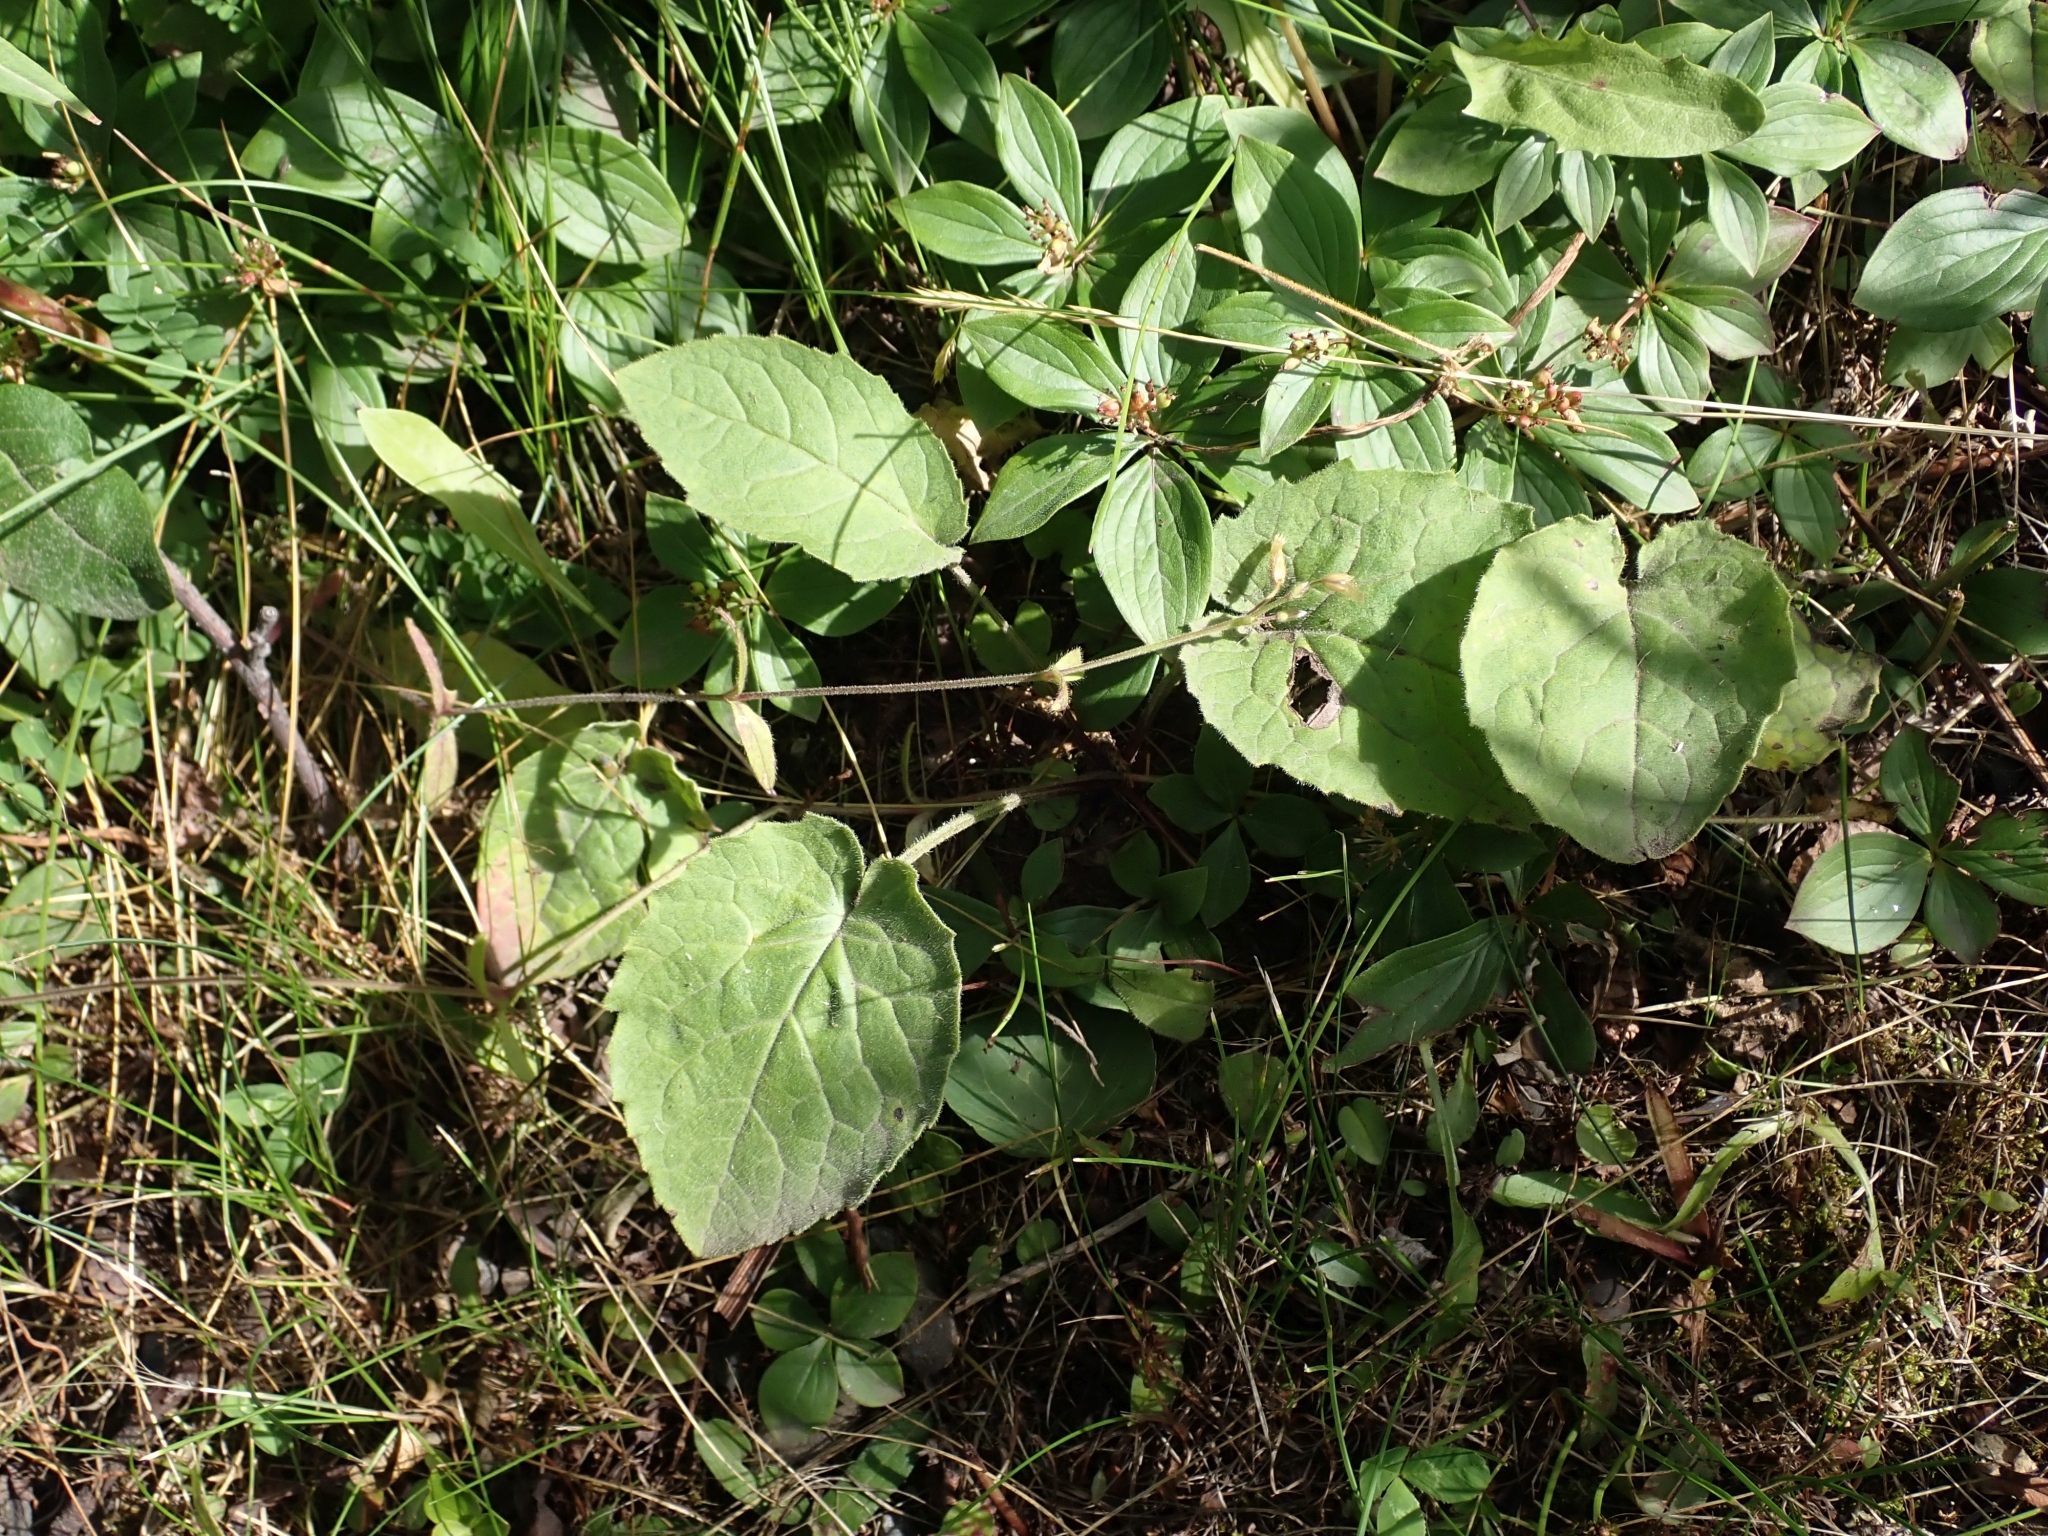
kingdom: Plantae
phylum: Tracheophyta
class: Magnoliopsida
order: Asterales
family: Asteraceae
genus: Arnica
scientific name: Arnica cordifolia
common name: Heart-leaf arnica
